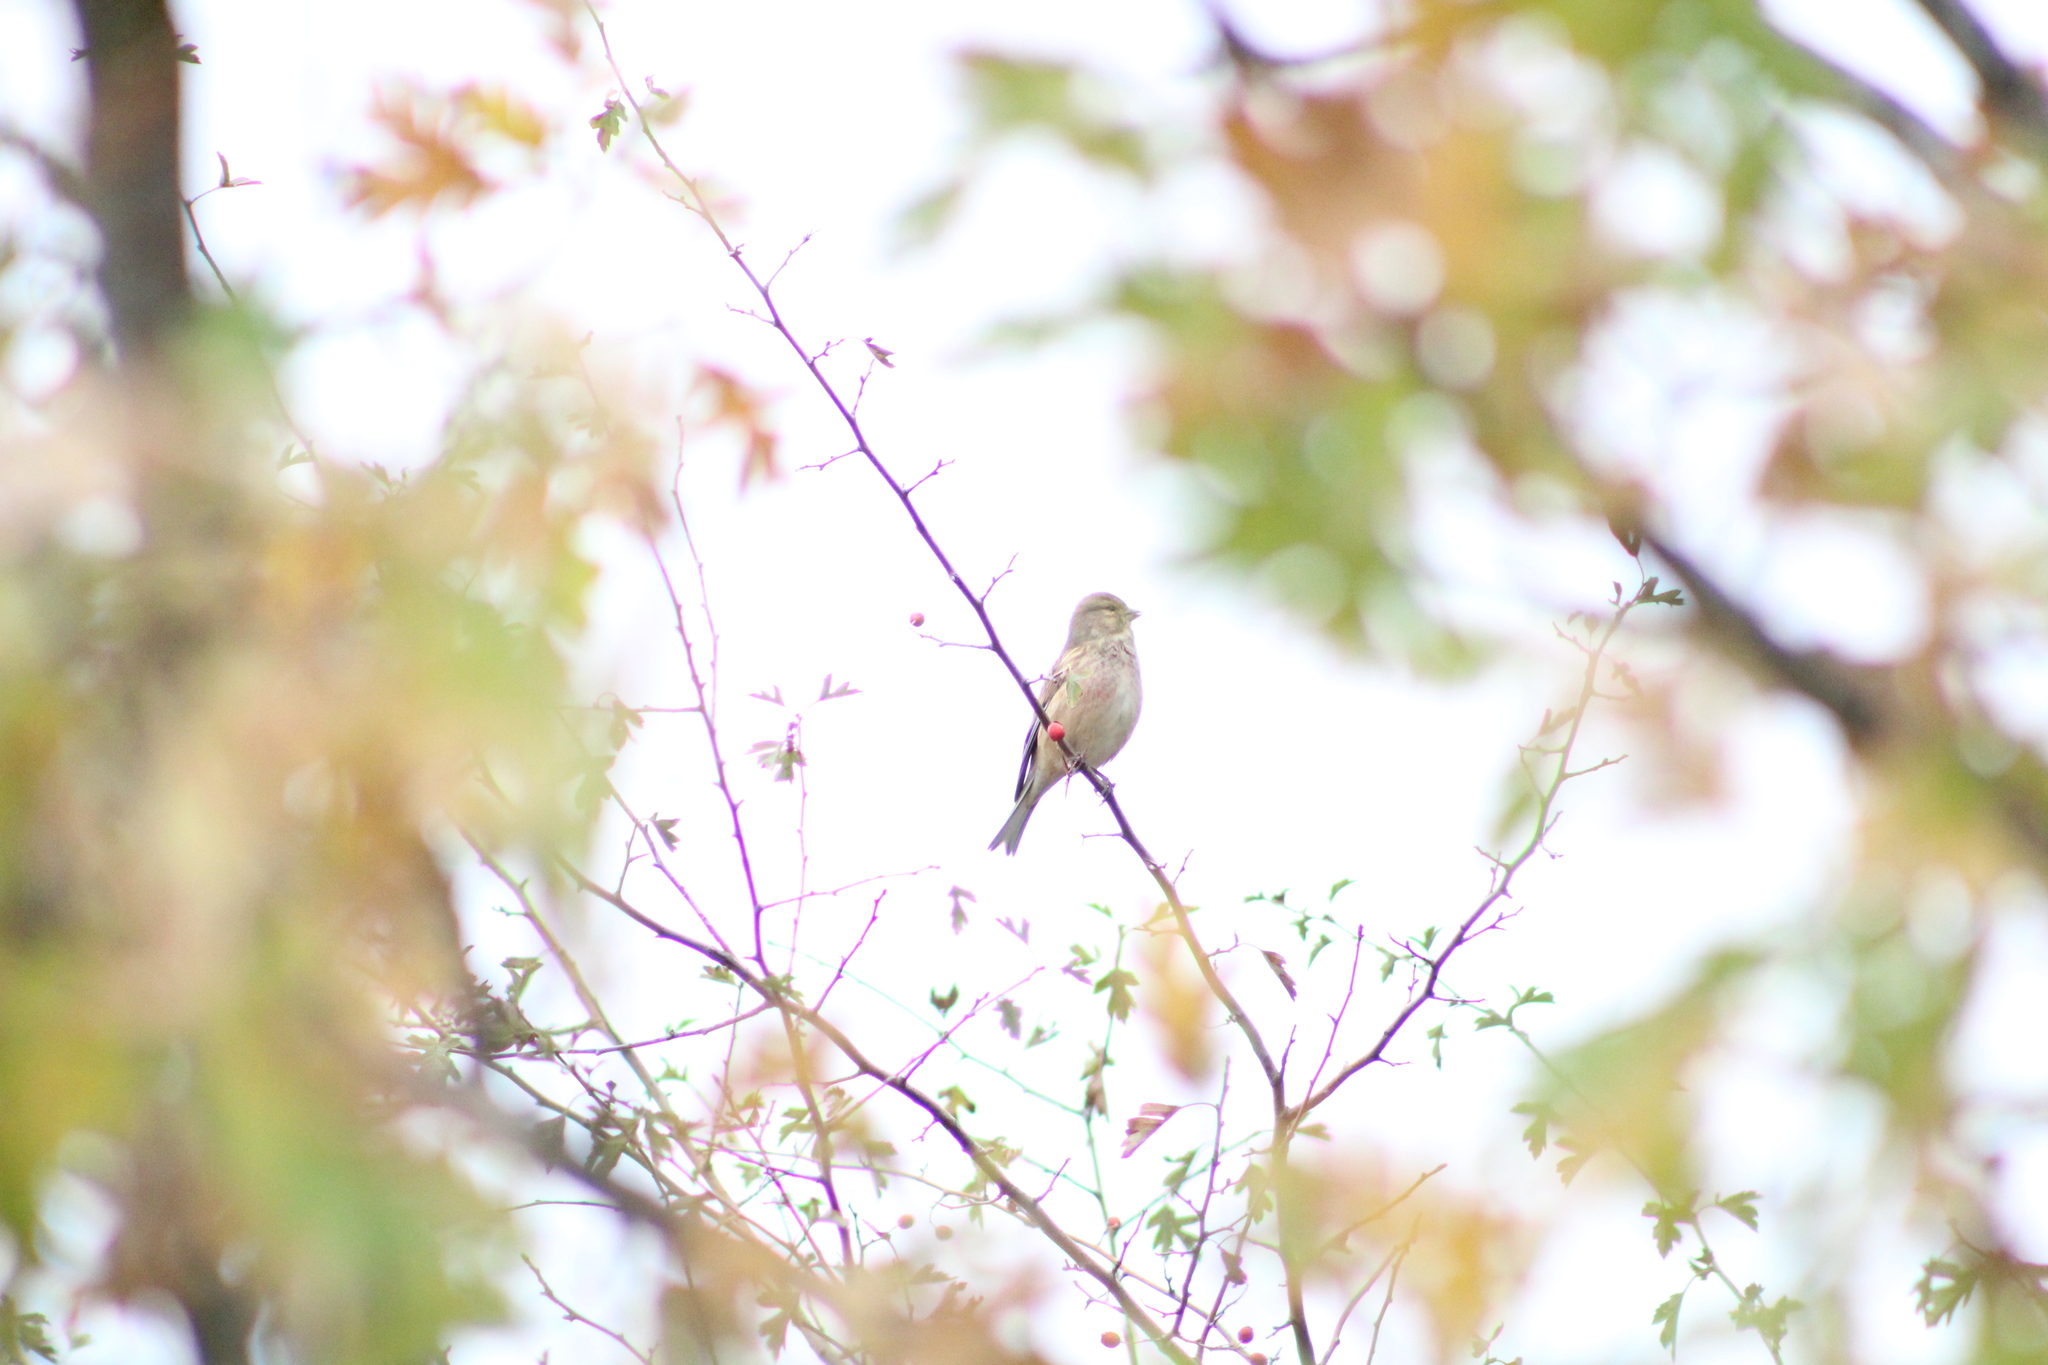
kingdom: Animalia
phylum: Chordata
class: Aves
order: Passeriformes
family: Fringillidae
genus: Linaria
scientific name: Linaria cannabina
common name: Common linnet
